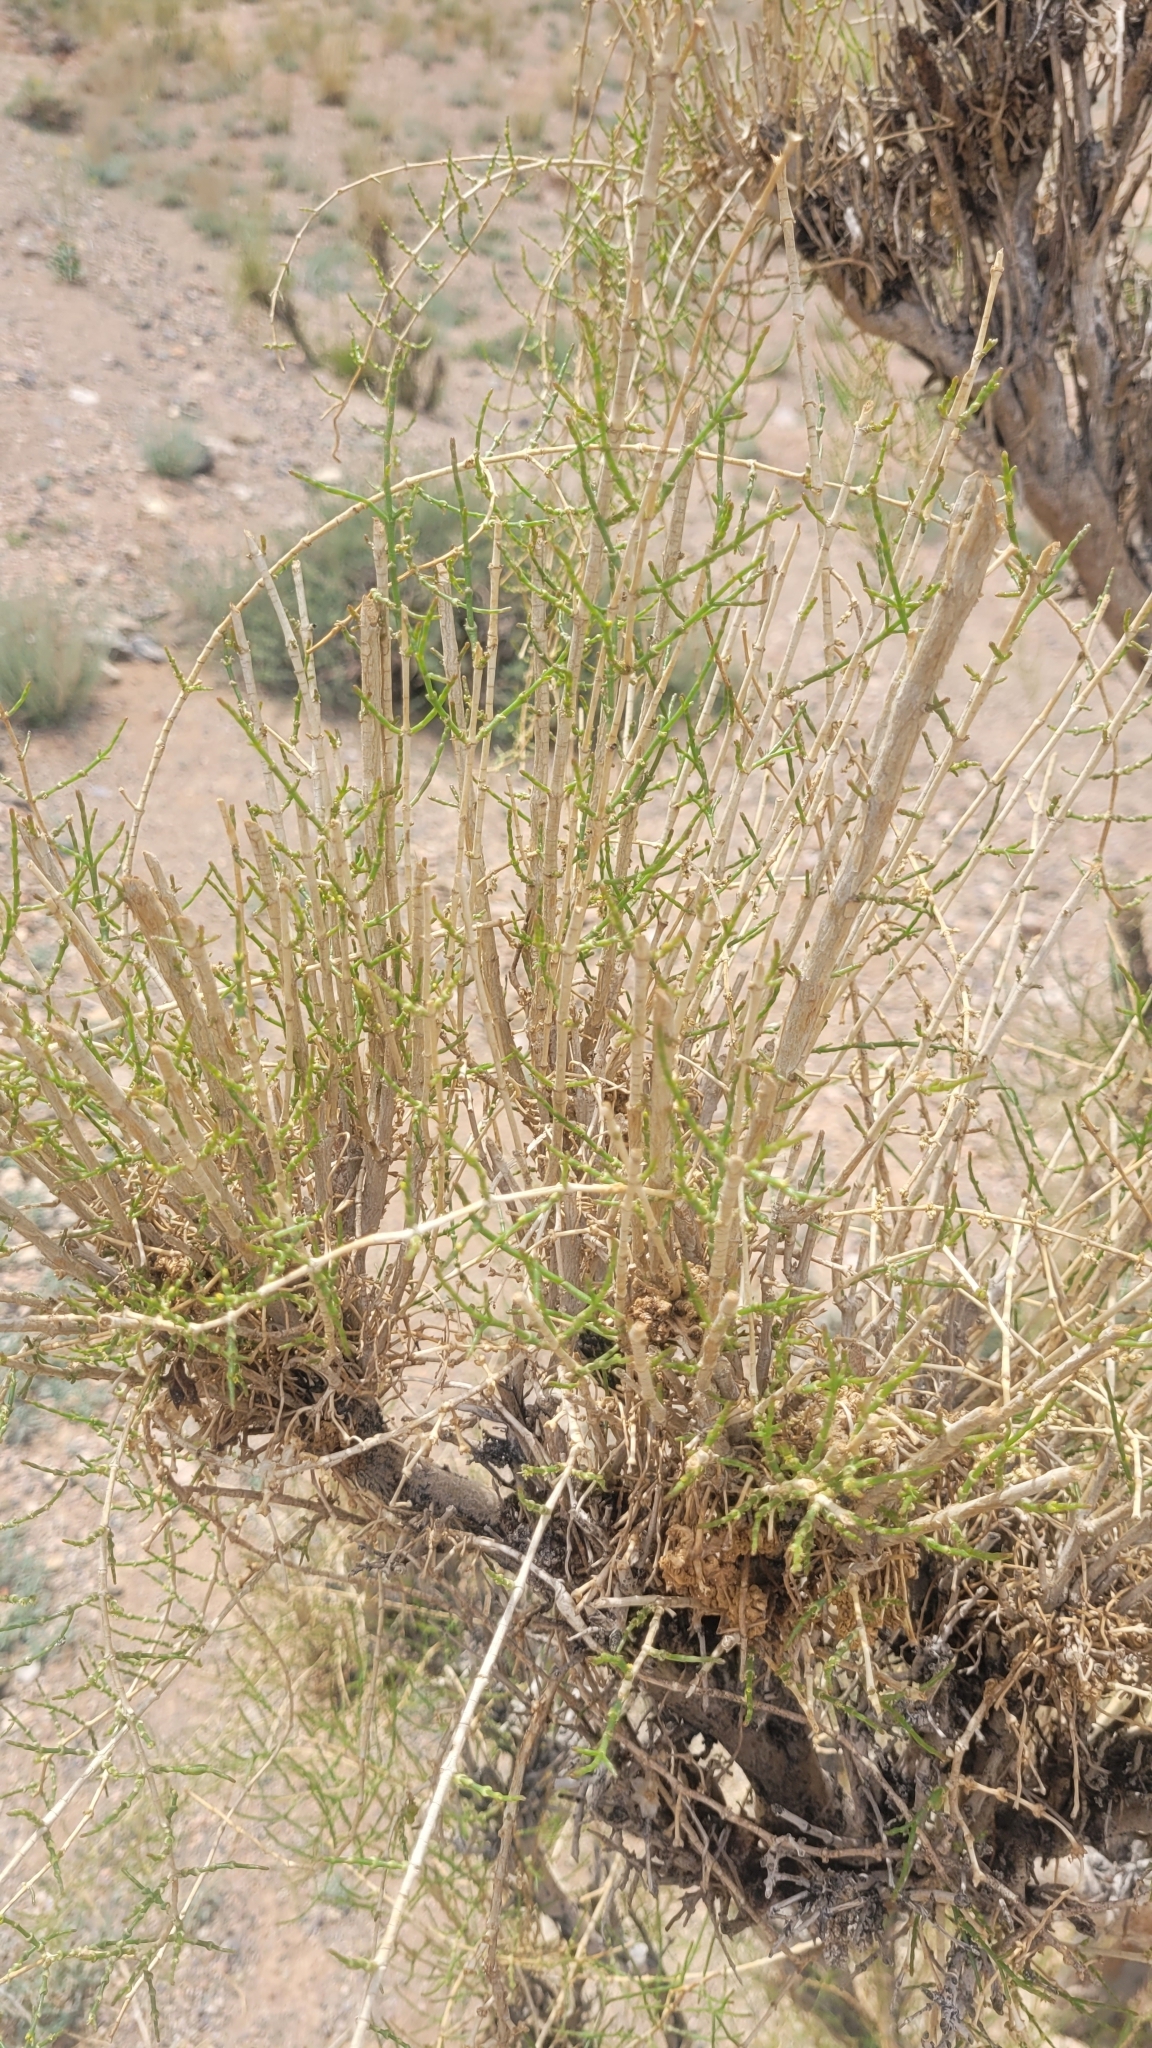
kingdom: Plantae
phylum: Tracheophyta
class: Magnoliopsida
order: Caryophyllales
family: Amaranthaceae
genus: Haloxylon
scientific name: Haloxylon ammodendron
